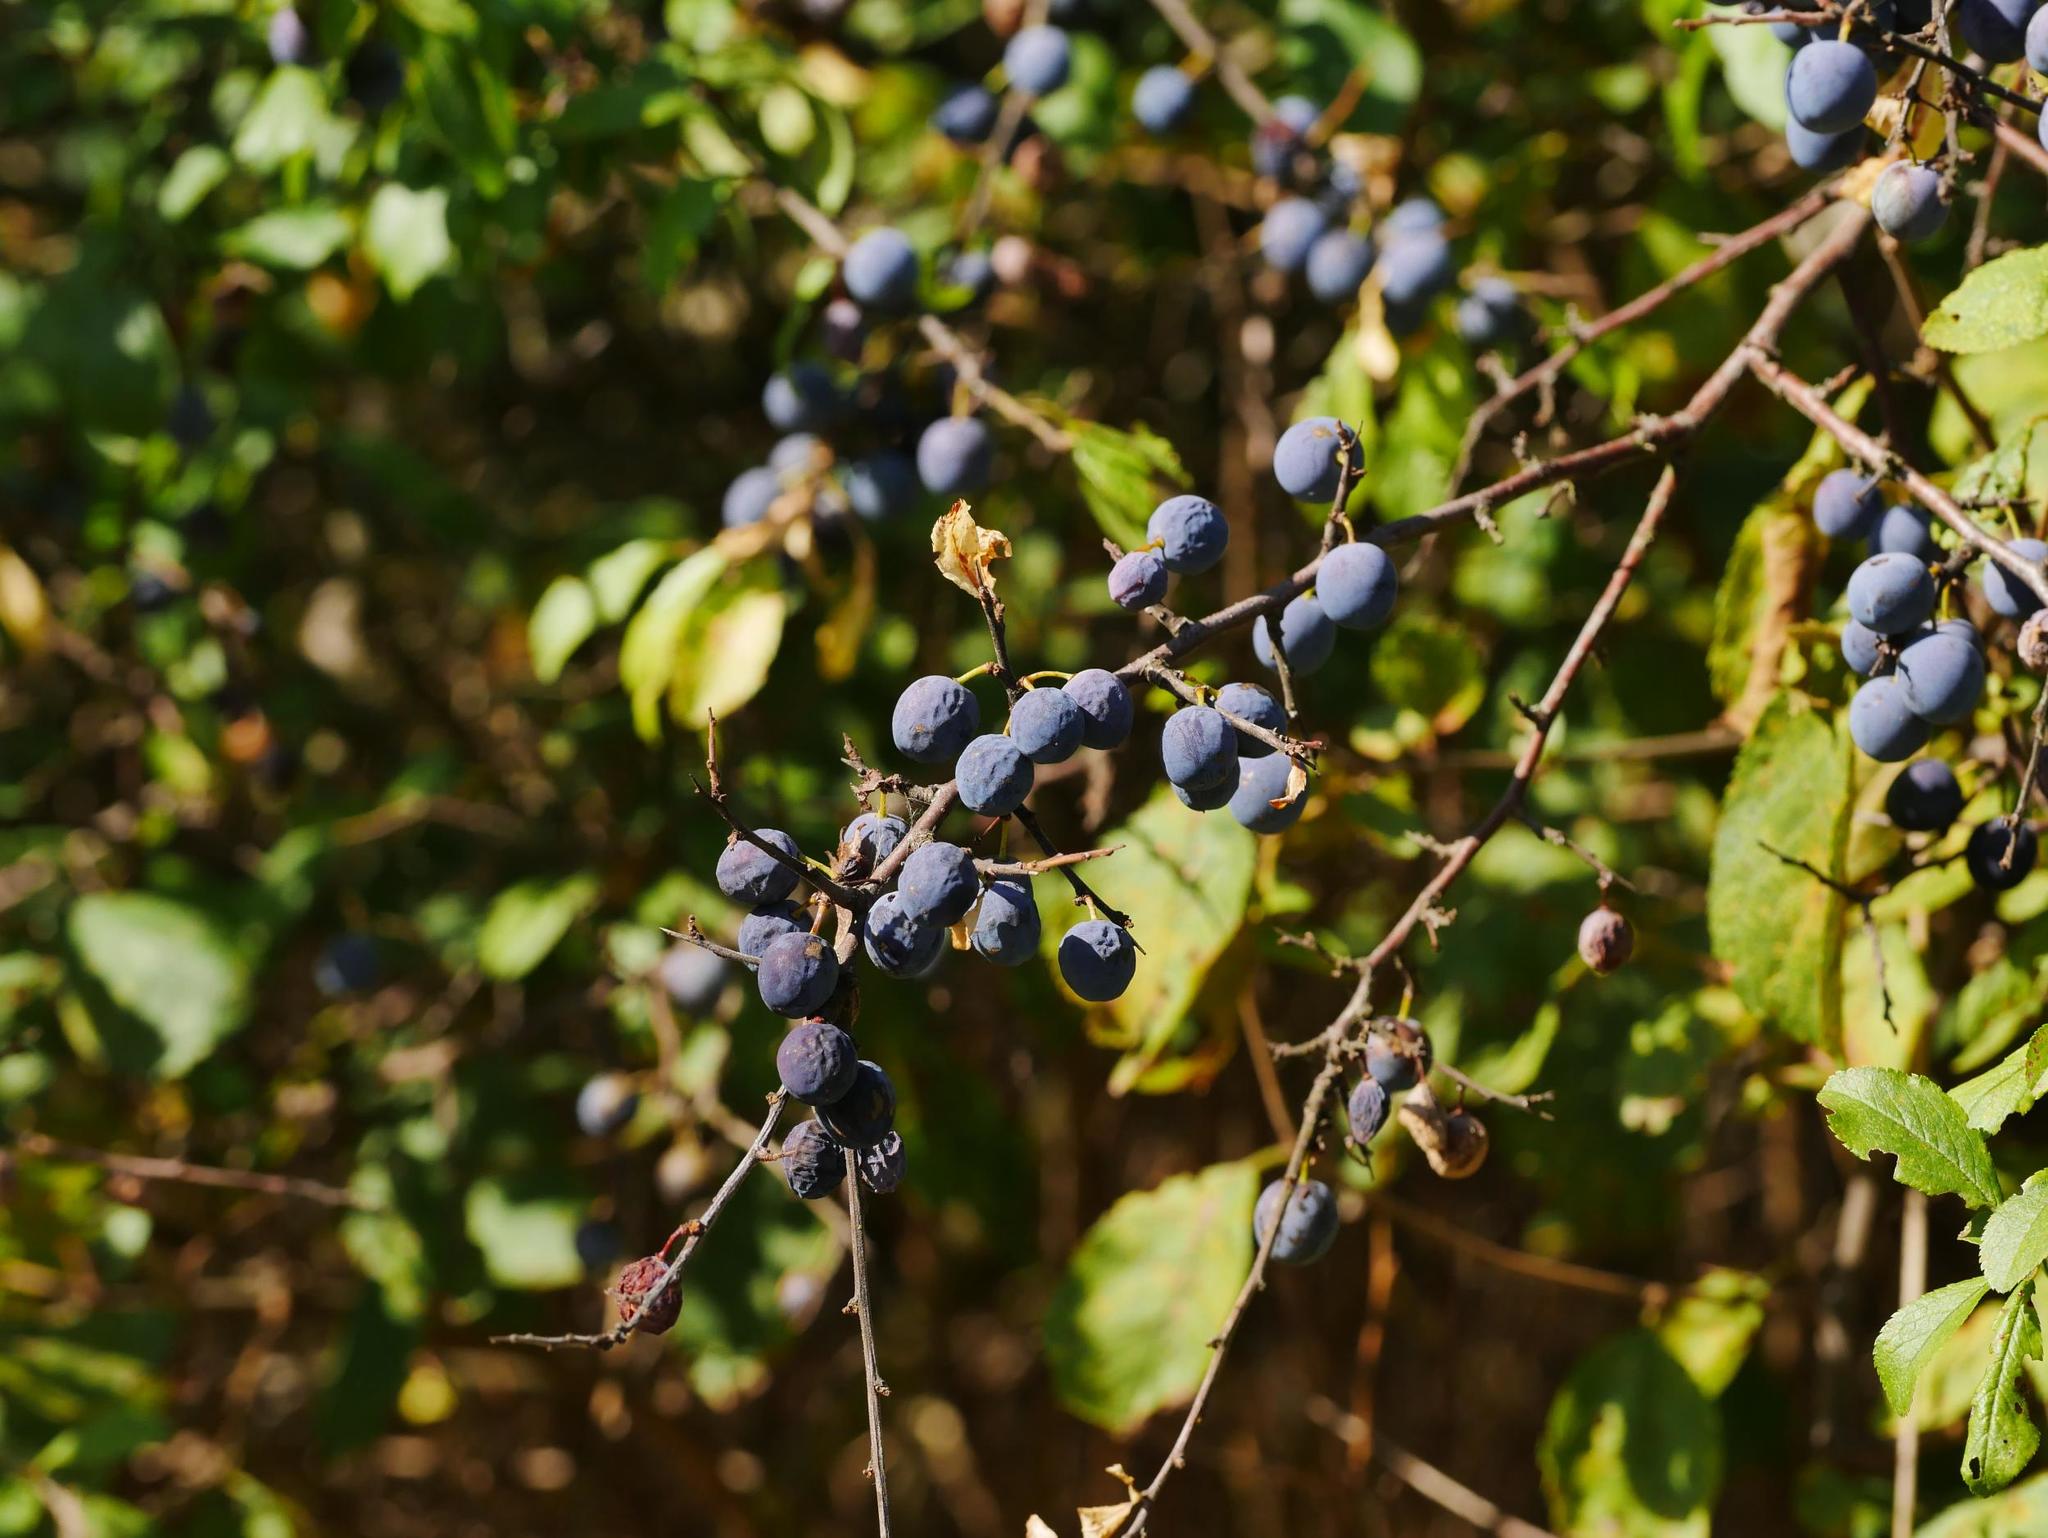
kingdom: Plantae
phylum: Tracheophyta
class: Magnoliopsida
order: Rosales
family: Rosaceae
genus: Prunus
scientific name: Prunus spinosa
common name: Blackthorn
